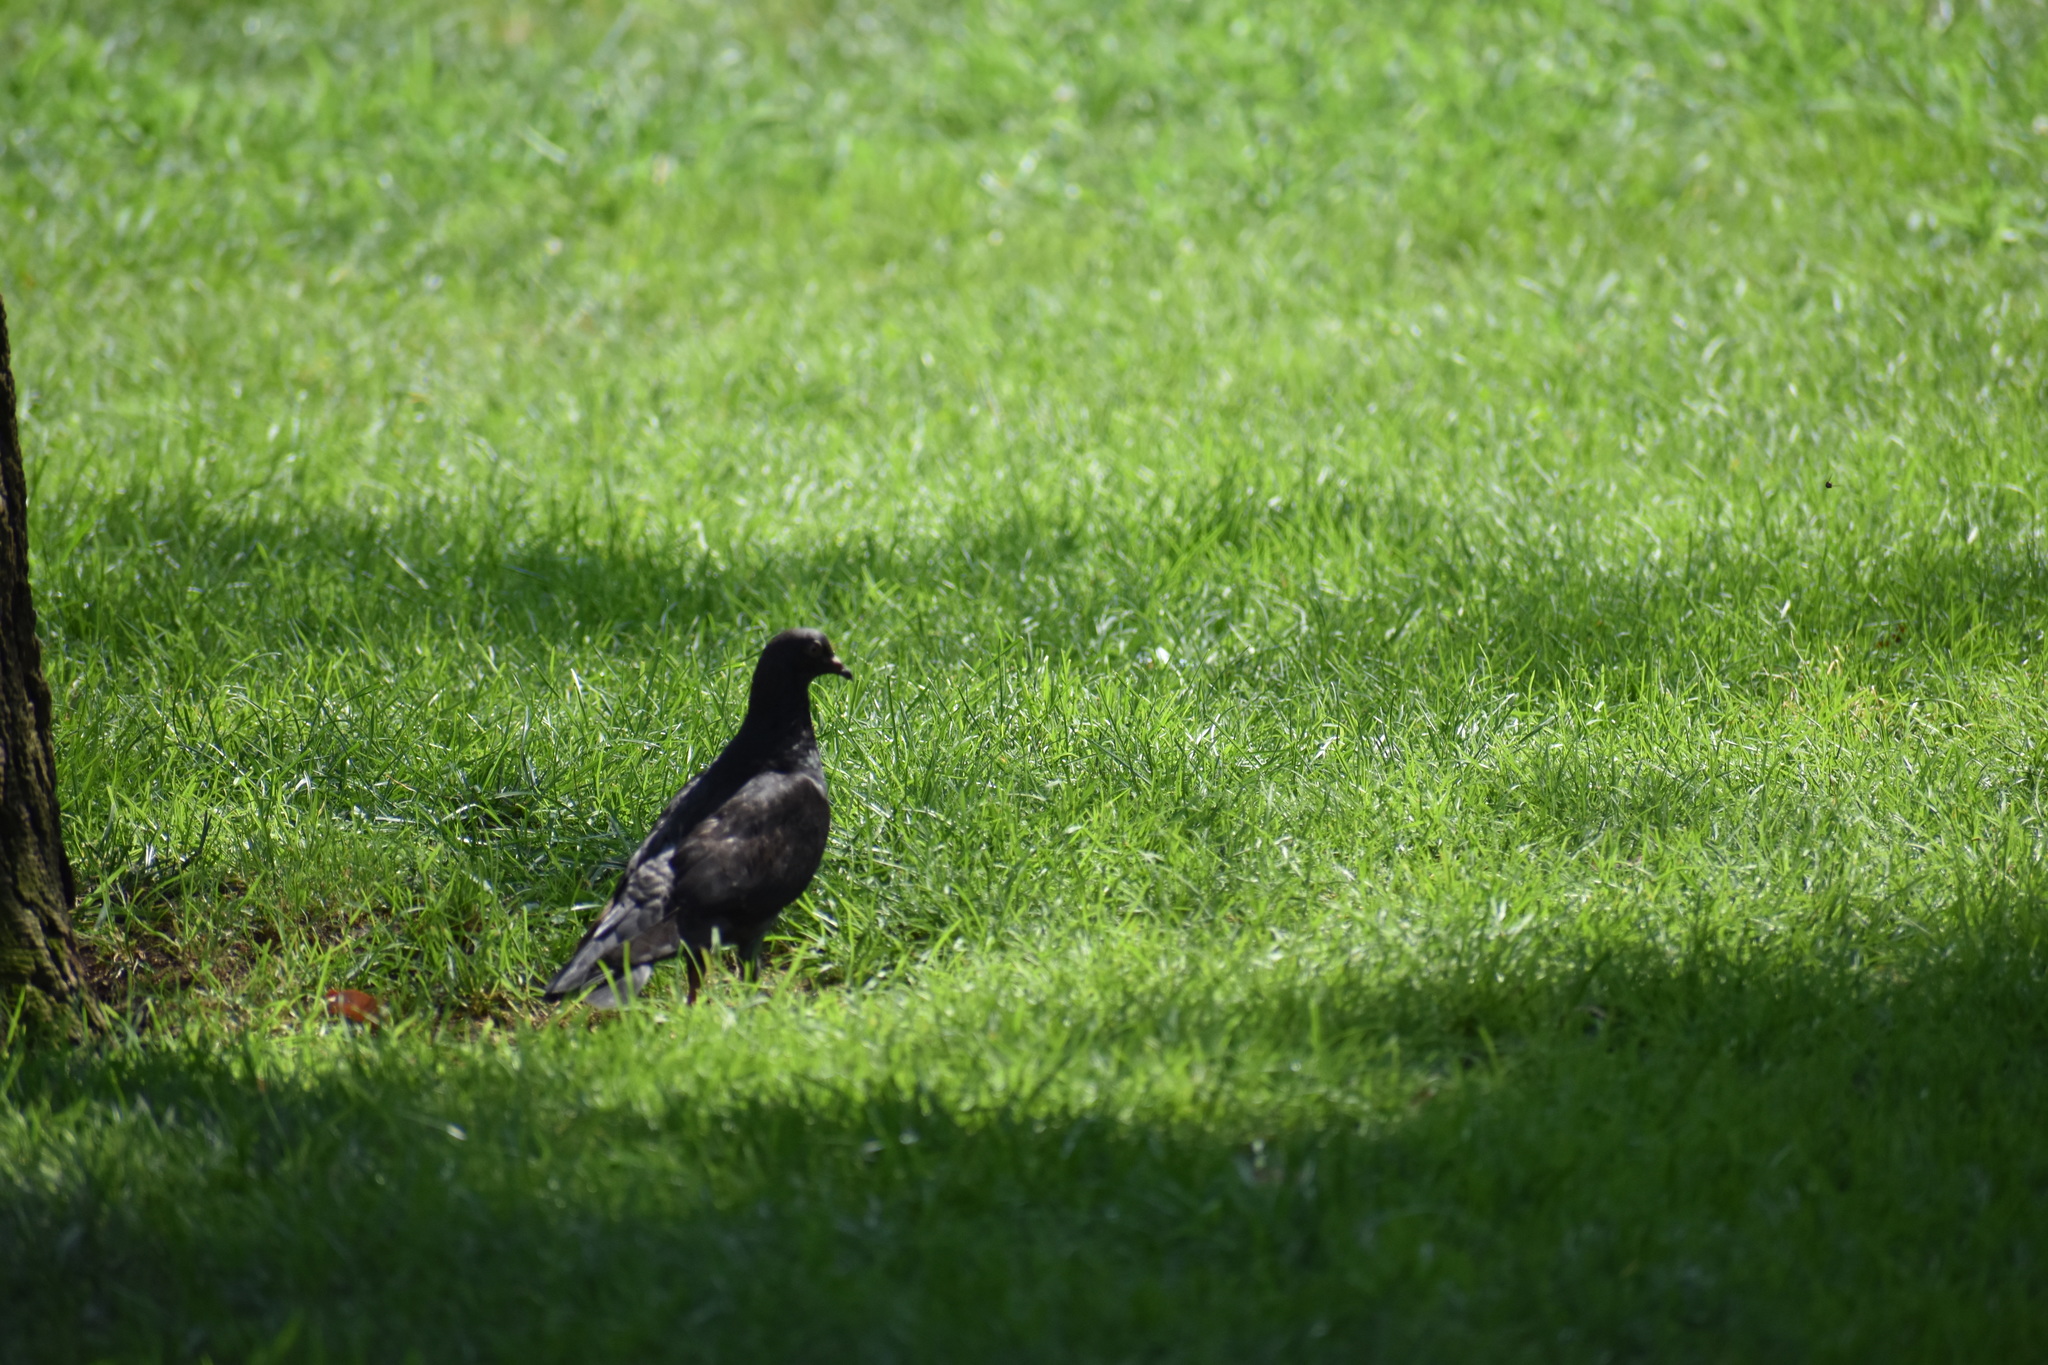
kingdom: Animalia
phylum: Chordata
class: Aves
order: Columbiformes
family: Columbidae
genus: Columba
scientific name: Columba livia
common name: Rock pigeon
